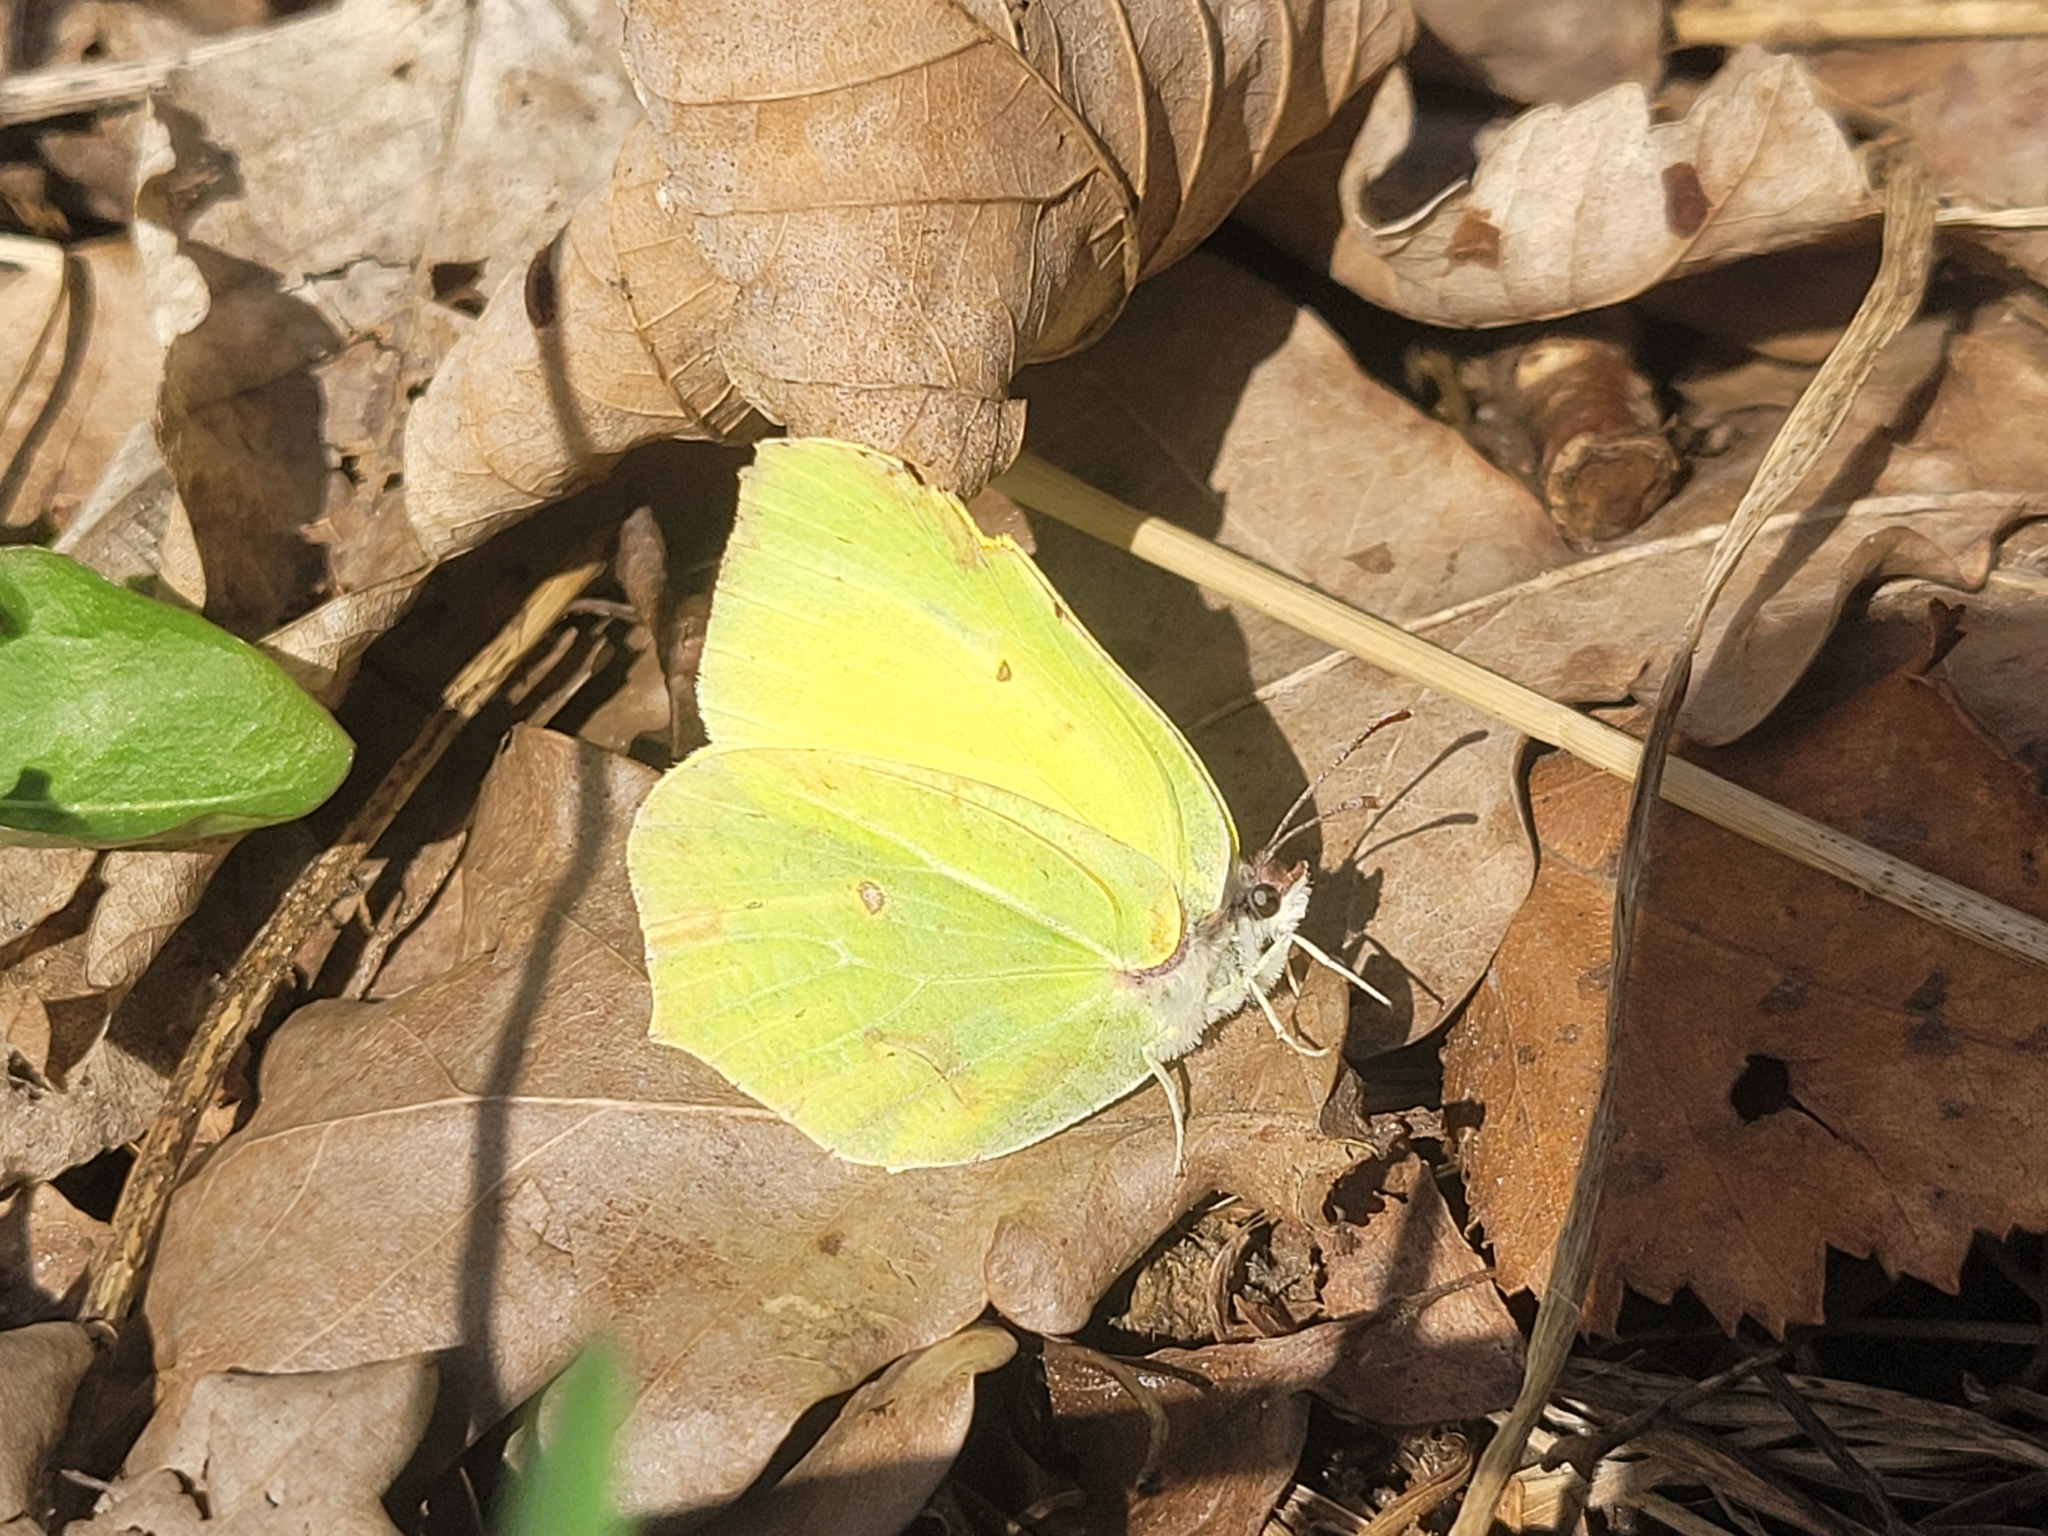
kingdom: Animalia
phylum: Arthropoda
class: Insecta
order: Lepidoptera
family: Pieridae
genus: Gonepteryx
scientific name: Gonepteryx rhamni
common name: Brimstone
